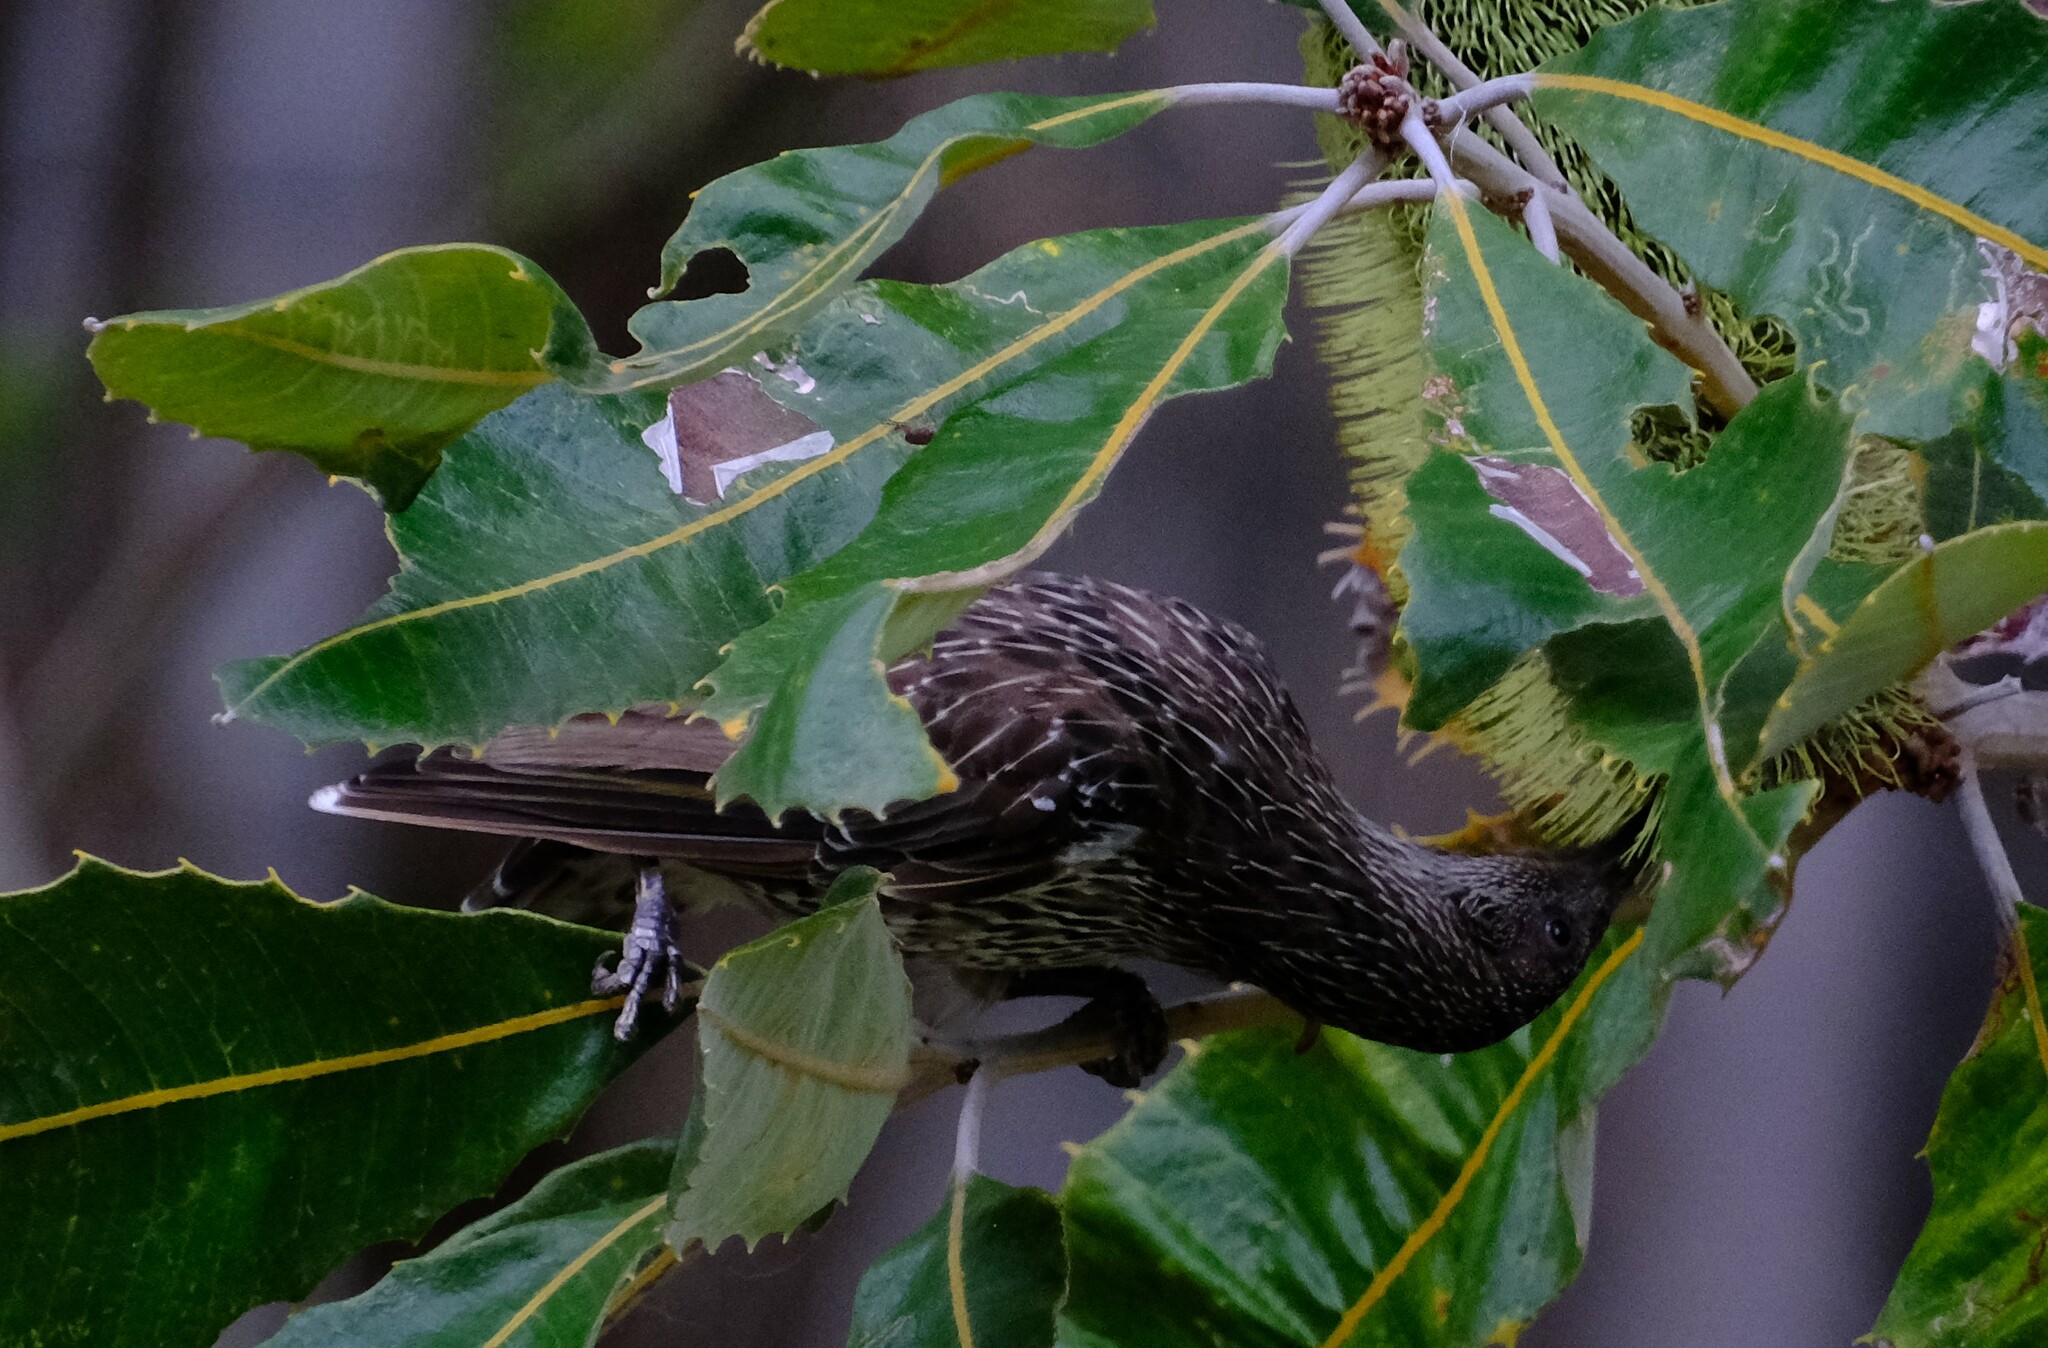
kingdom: Animalia
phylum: Chordata
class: Aves
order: Passeriformes
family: Meliphagidae
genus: Anthochaera
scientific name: Anthochaera chrysoptera
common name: Little wattlebird
